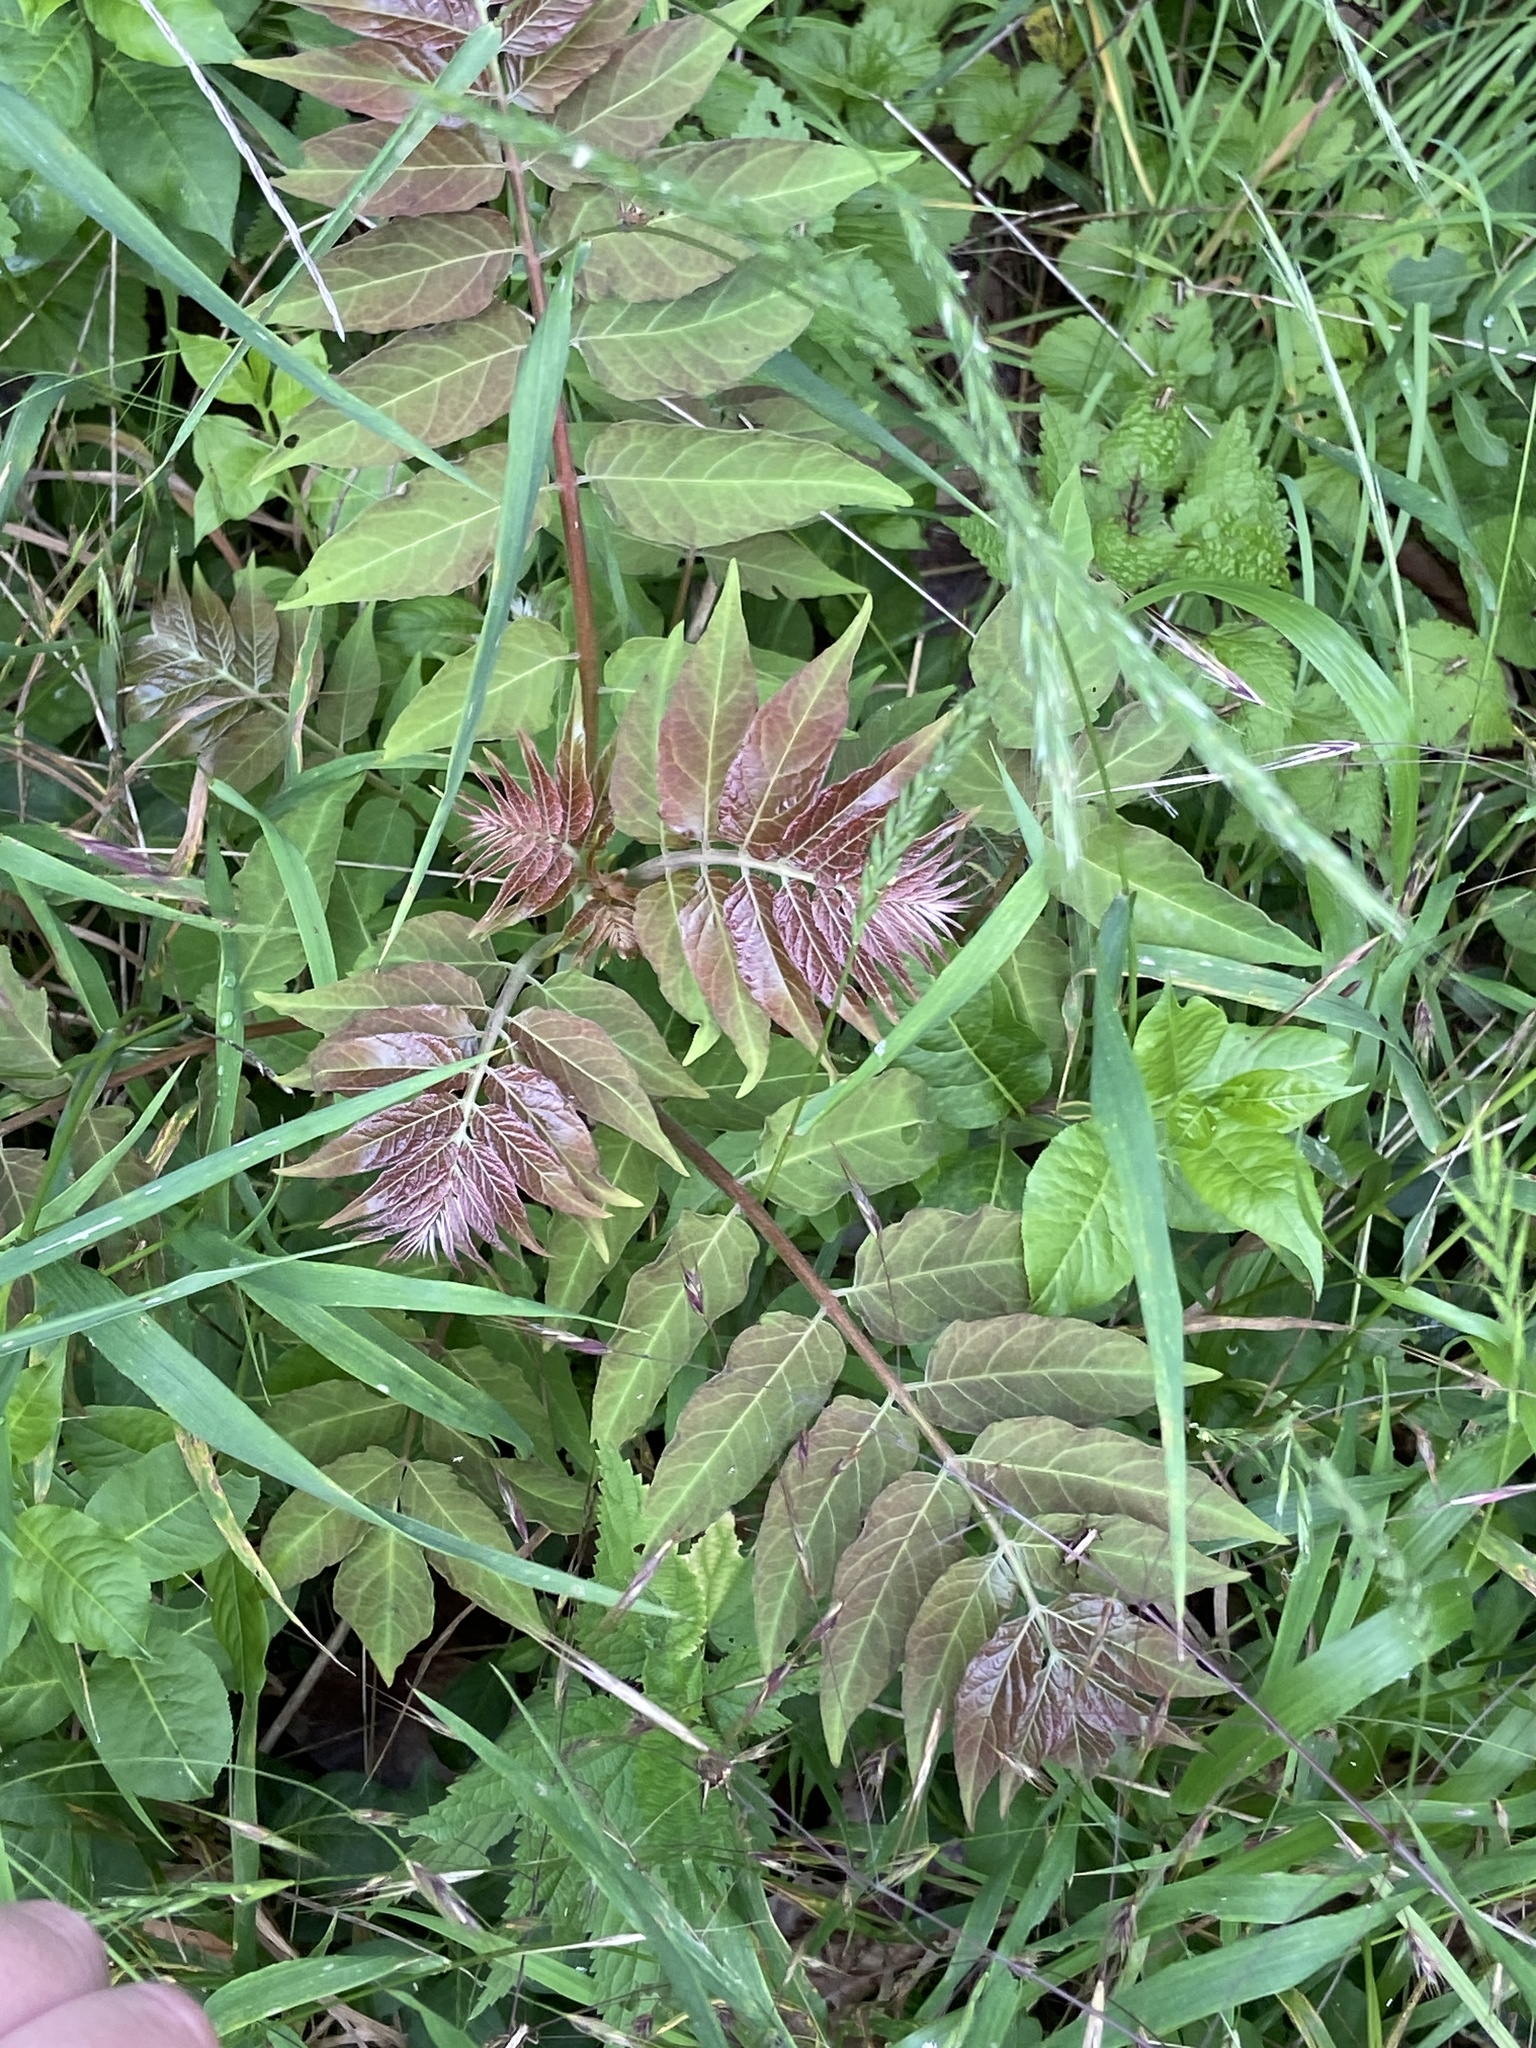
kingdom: Plantae
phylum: Tracheophyta
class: Magnoliopsida
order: Sapindales
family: Simaroubaceae
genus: Ailanthus
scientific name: Ailanthus altissima
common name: Tree-of-heaven
